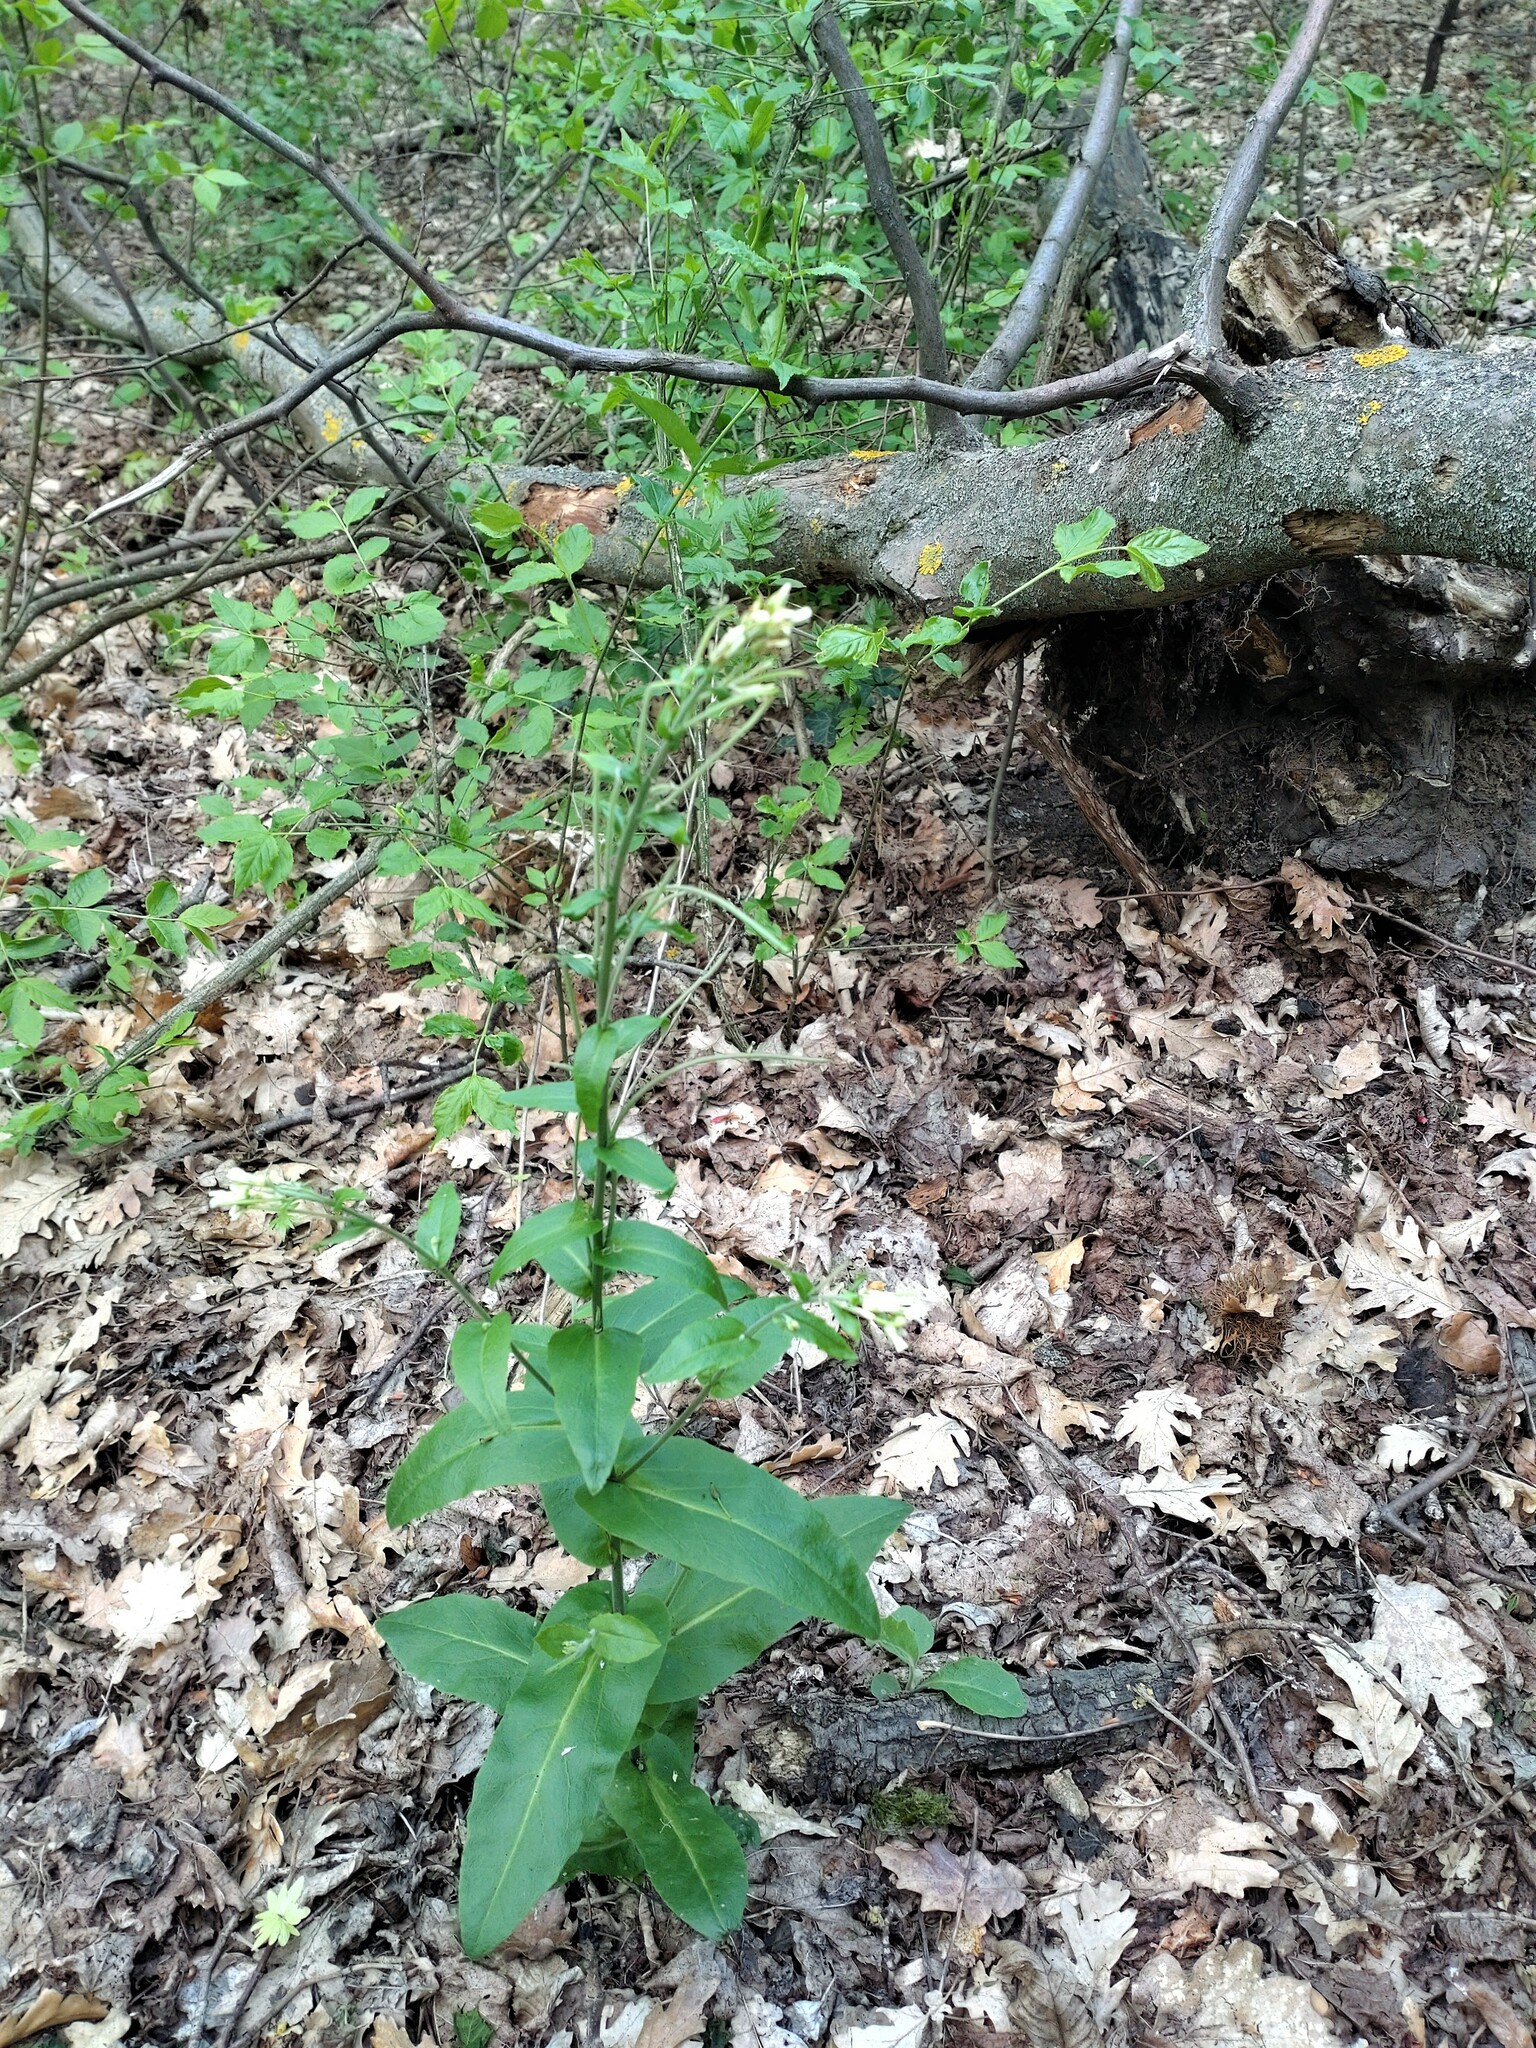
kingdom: Plantae
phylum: Tracheophyta
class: Magnoliopsida
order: Brassicales
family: Brassicaceae
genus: Pseudoturritis
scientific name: Pseudoturritis turrita
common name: Tower cress
